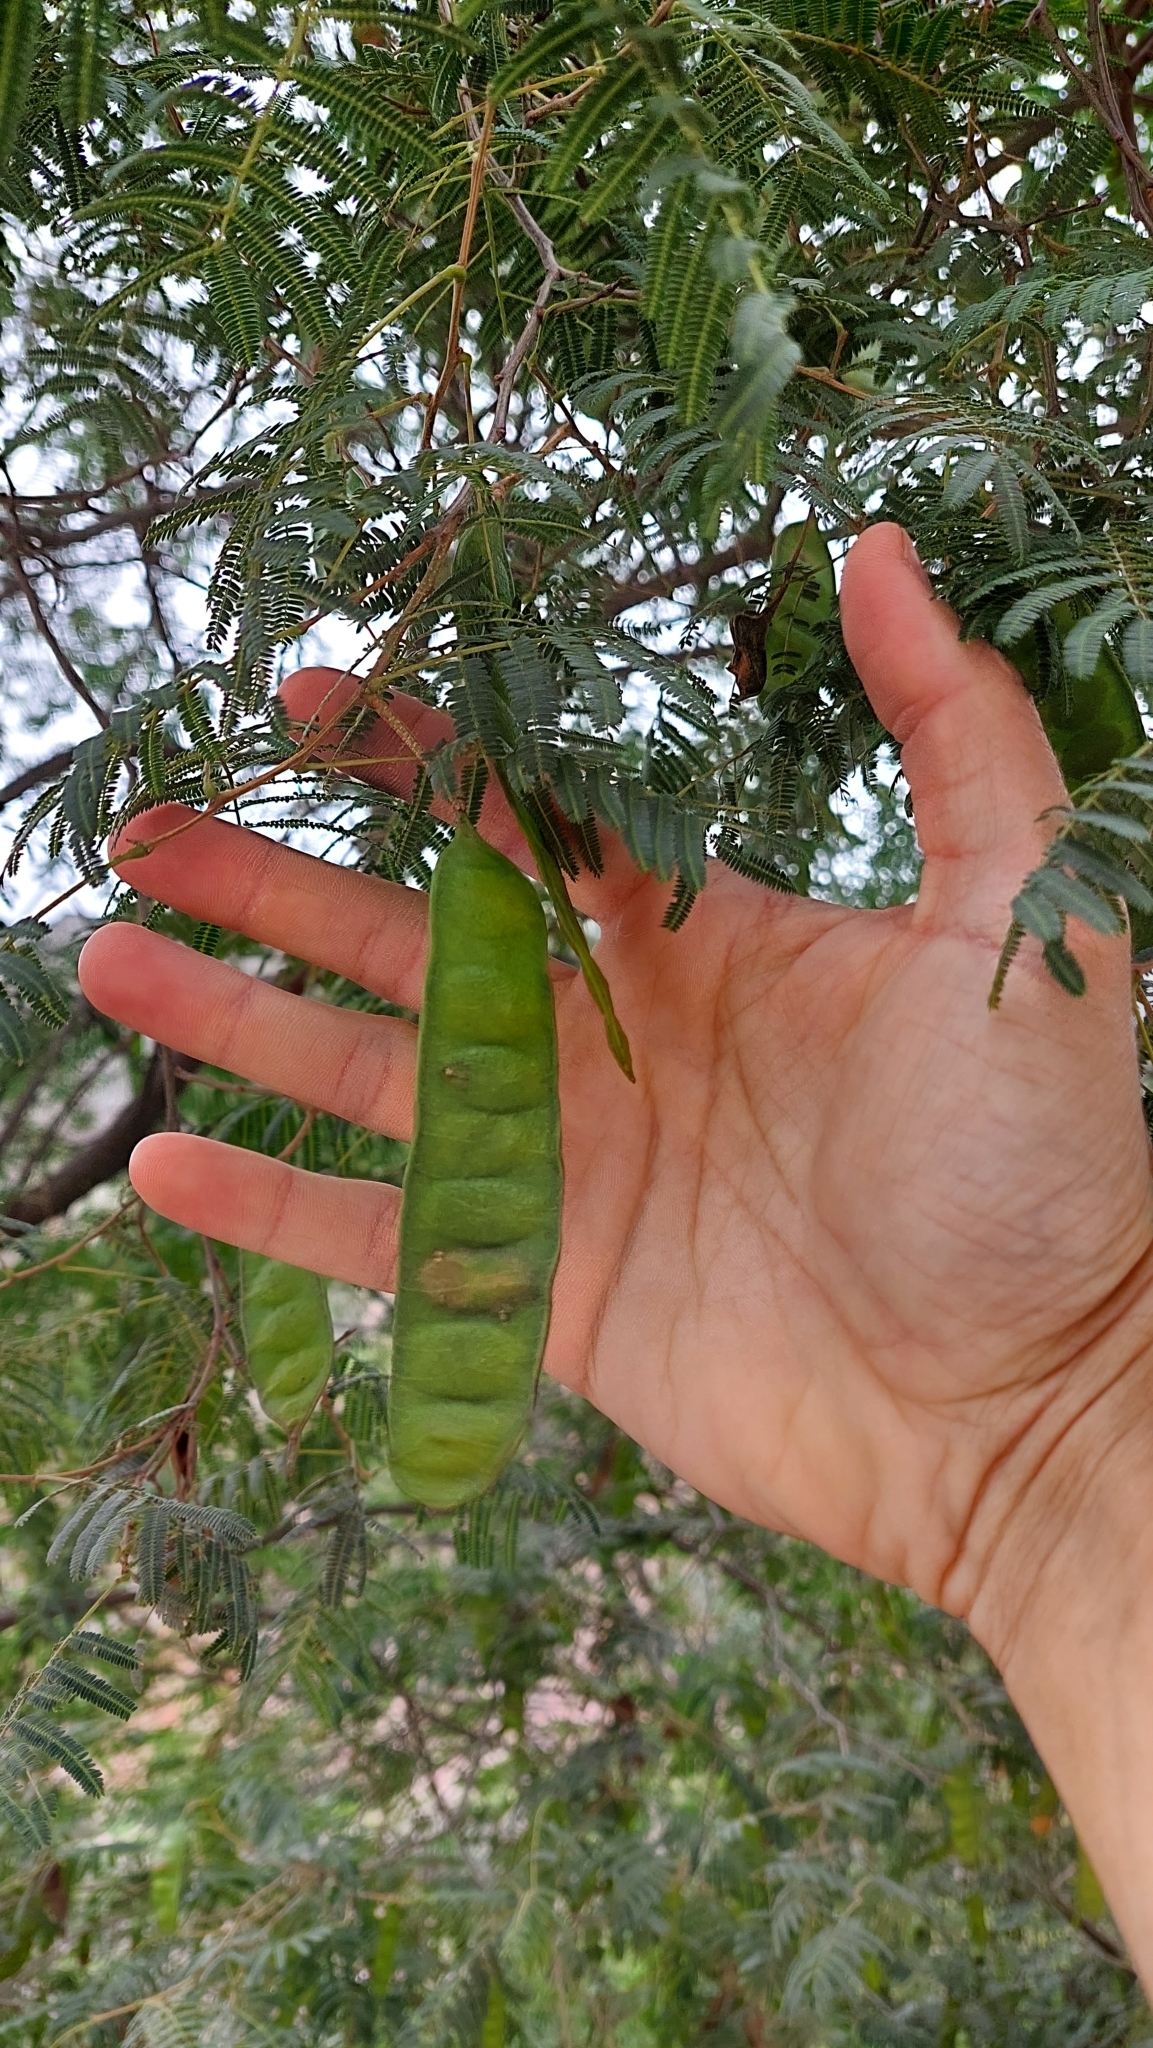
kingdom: Plantae
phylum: Tracheophyta
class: Magnoliopsida
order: Fabales
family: Fabaceae
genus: Parasenegalia
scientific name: Parasenegalia visco
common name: Visco
